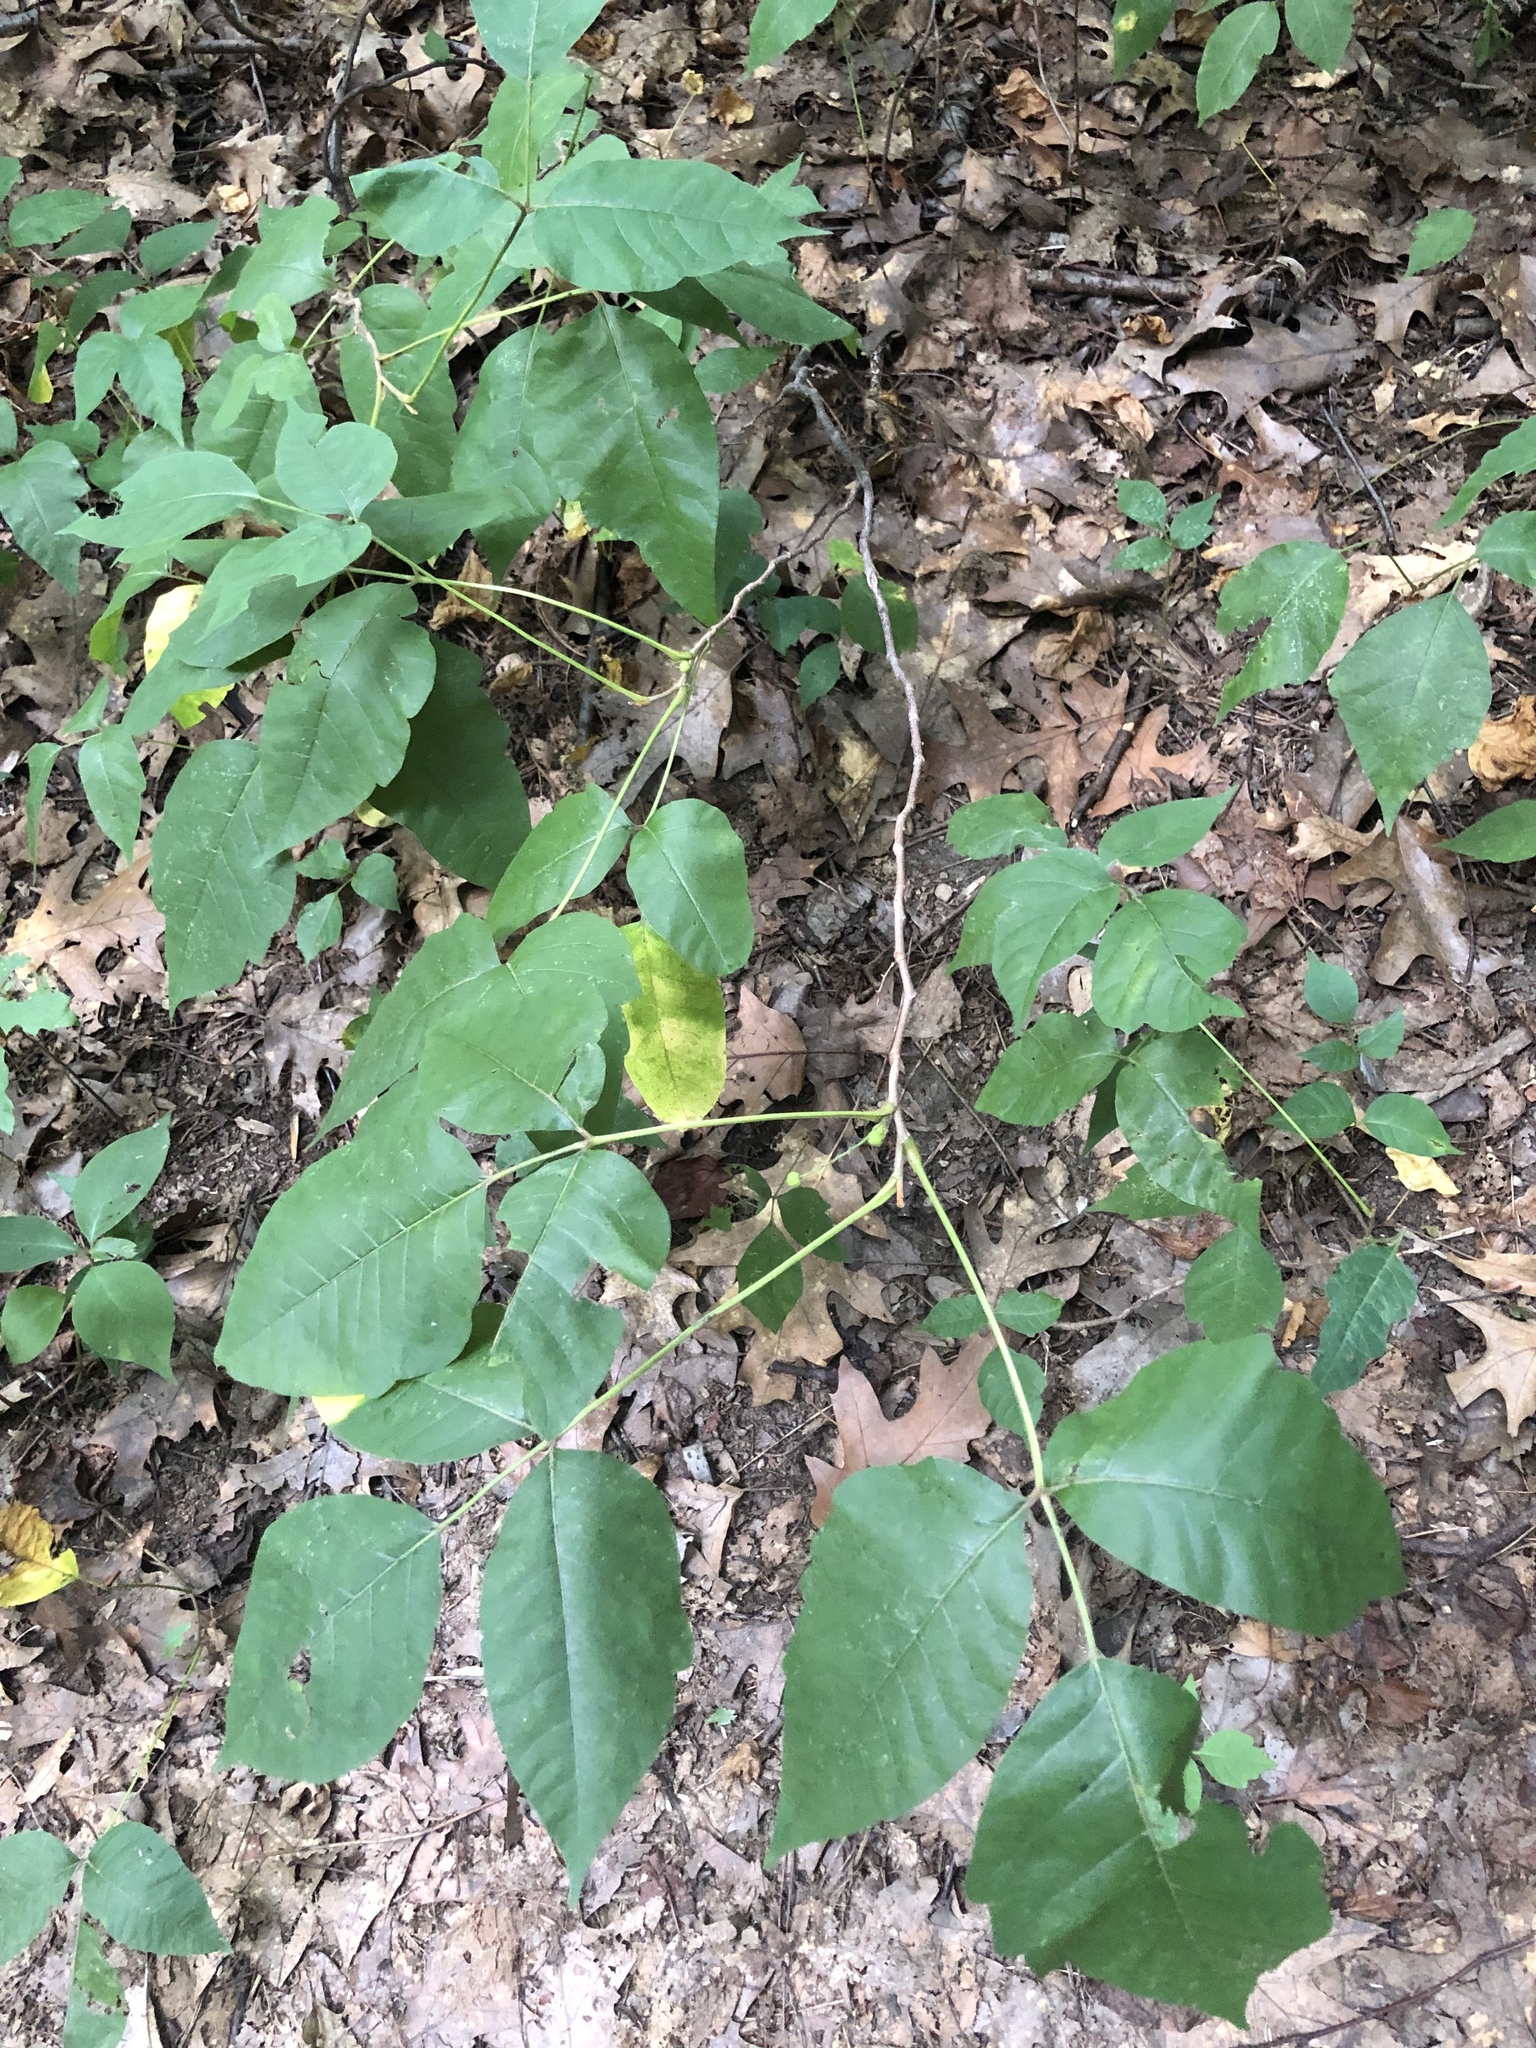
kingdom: Plantae
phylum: Tracheophyta
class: Magnoliopsida
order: Sapindales
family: Anacardiaceae
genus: Toxicodendron
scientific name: Toxicodendron radicans
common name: Poison ivy
